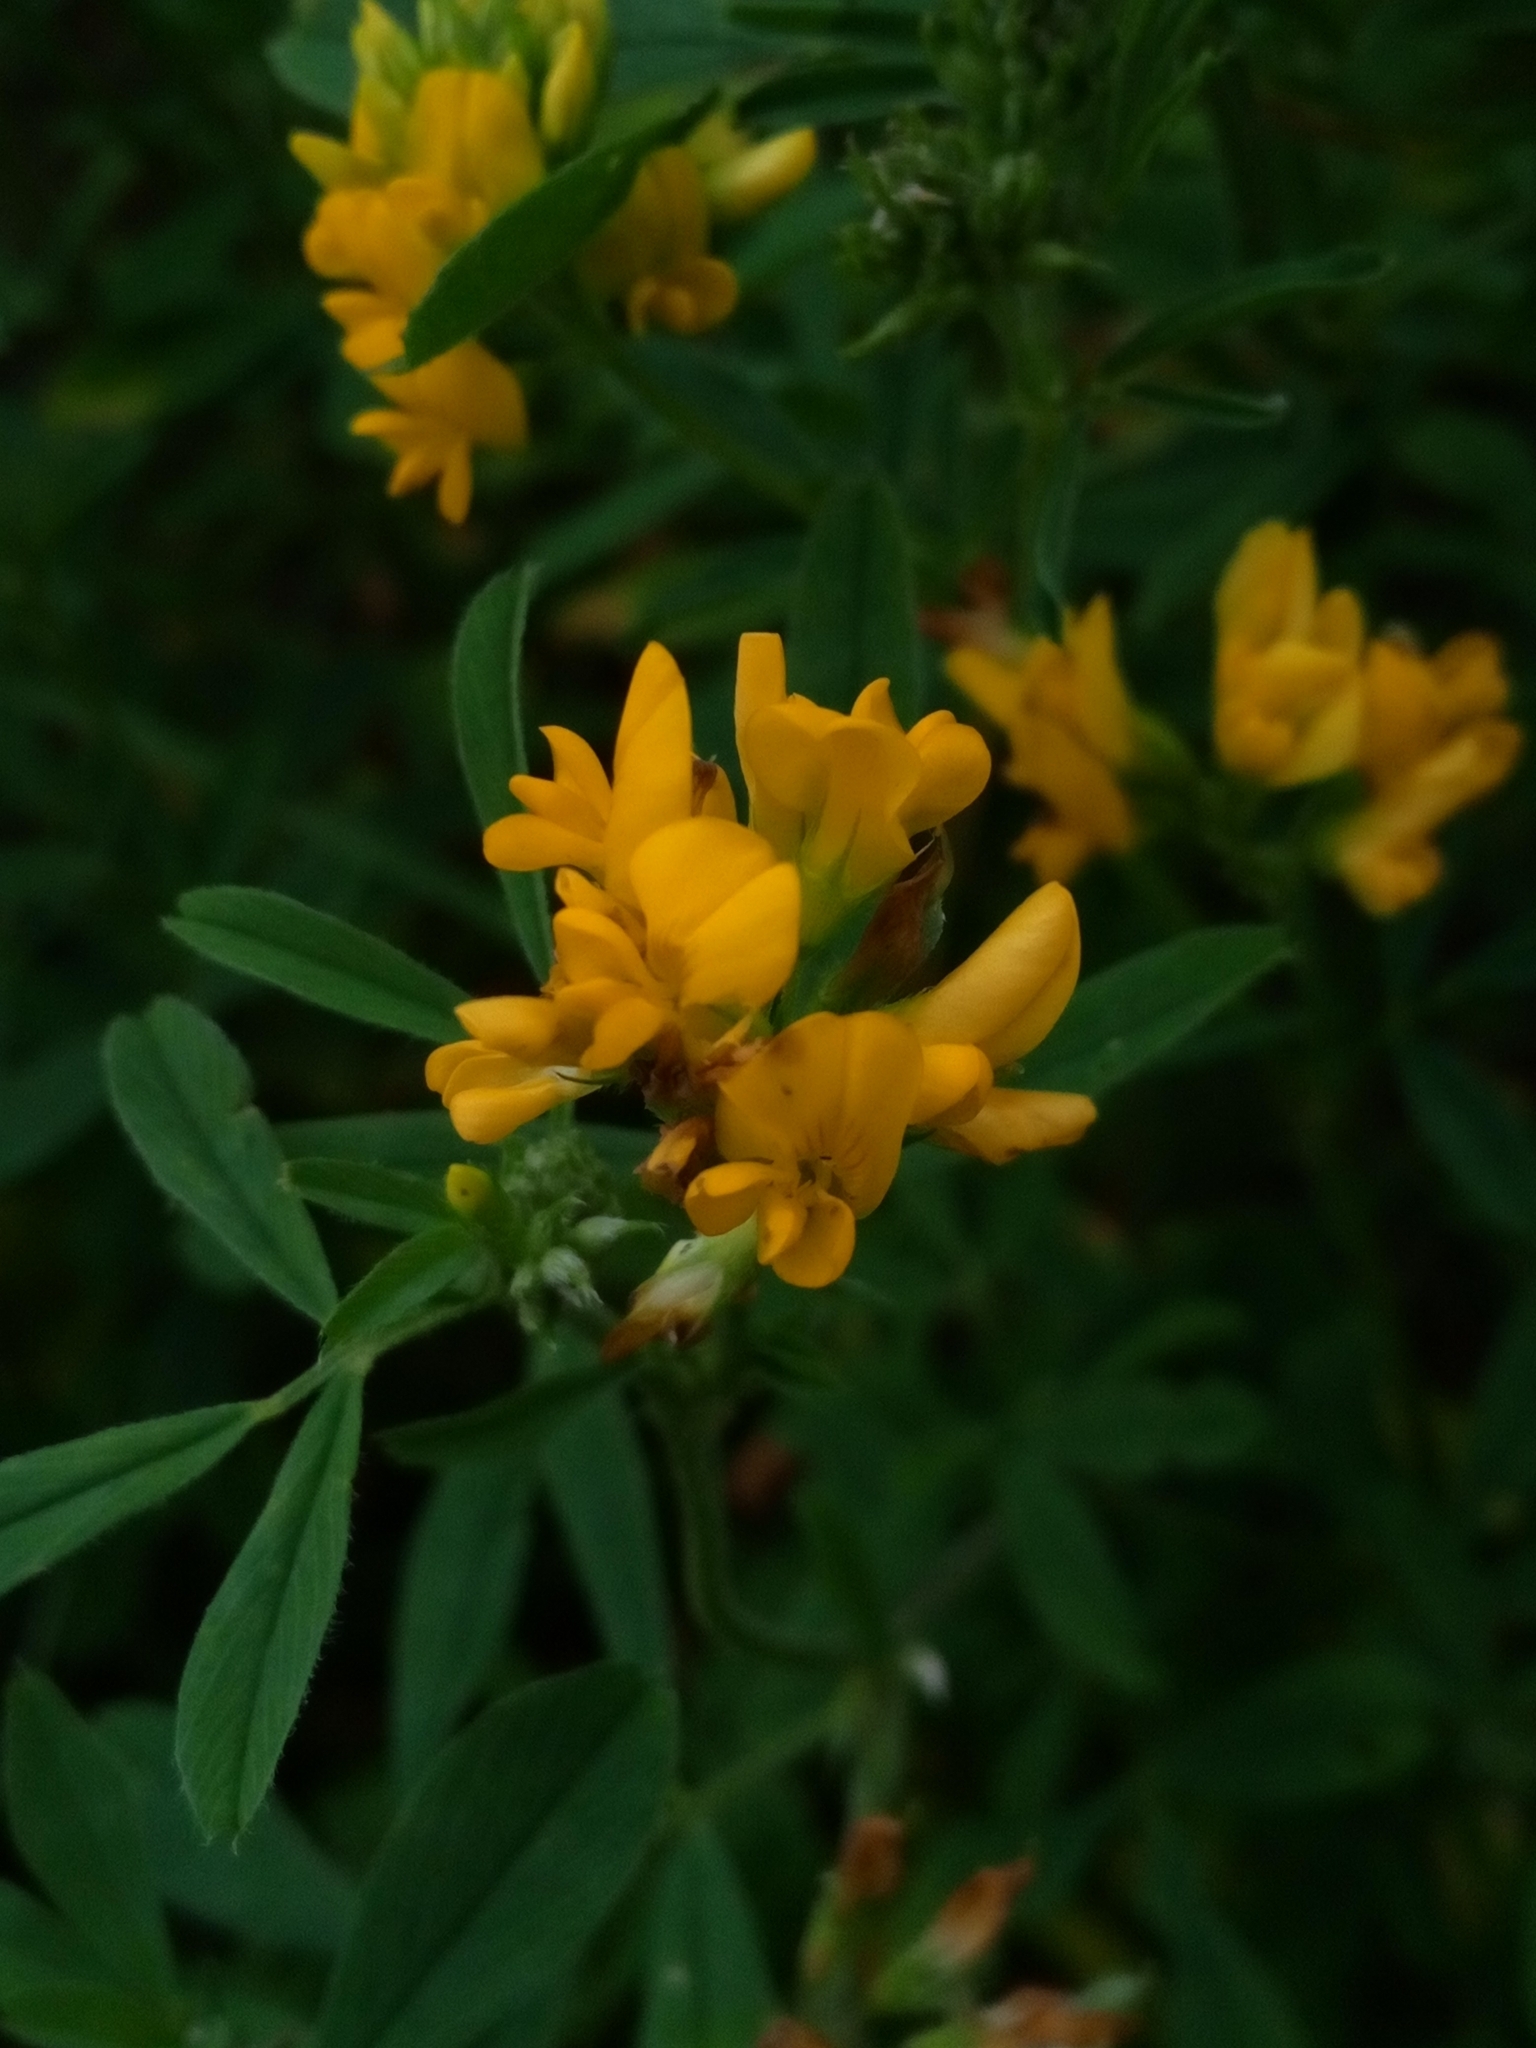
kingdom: Plantae
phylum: Tracheophyta
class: Magnoliopsida
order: Fabales
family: Fabaceae
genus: Medicago
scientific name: Medicago falcata
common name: Sickle medick
